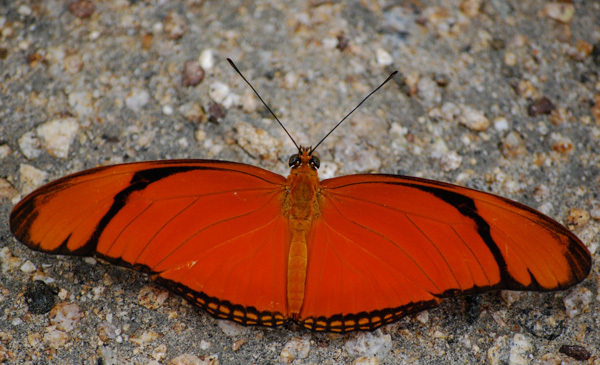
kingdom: Animalia
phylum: Arthropoda
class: Insecta
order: Lepidoptera
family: Nymphalidae
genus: Dryas
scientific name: Dryas iulia
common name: Flambeau
